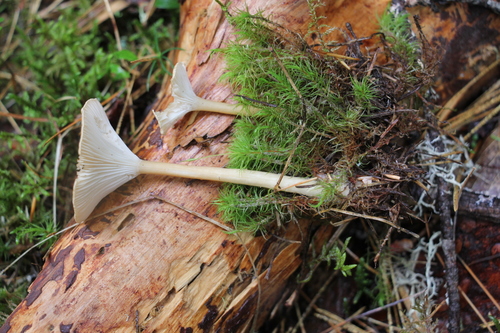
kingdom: Fungi
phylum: Basidiomycota
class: Agaricomycetes
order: Agaricales
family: Tricholomataceae
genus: Infundibulicybe
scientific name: Infundibulicybe gibba
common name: Common funnel
